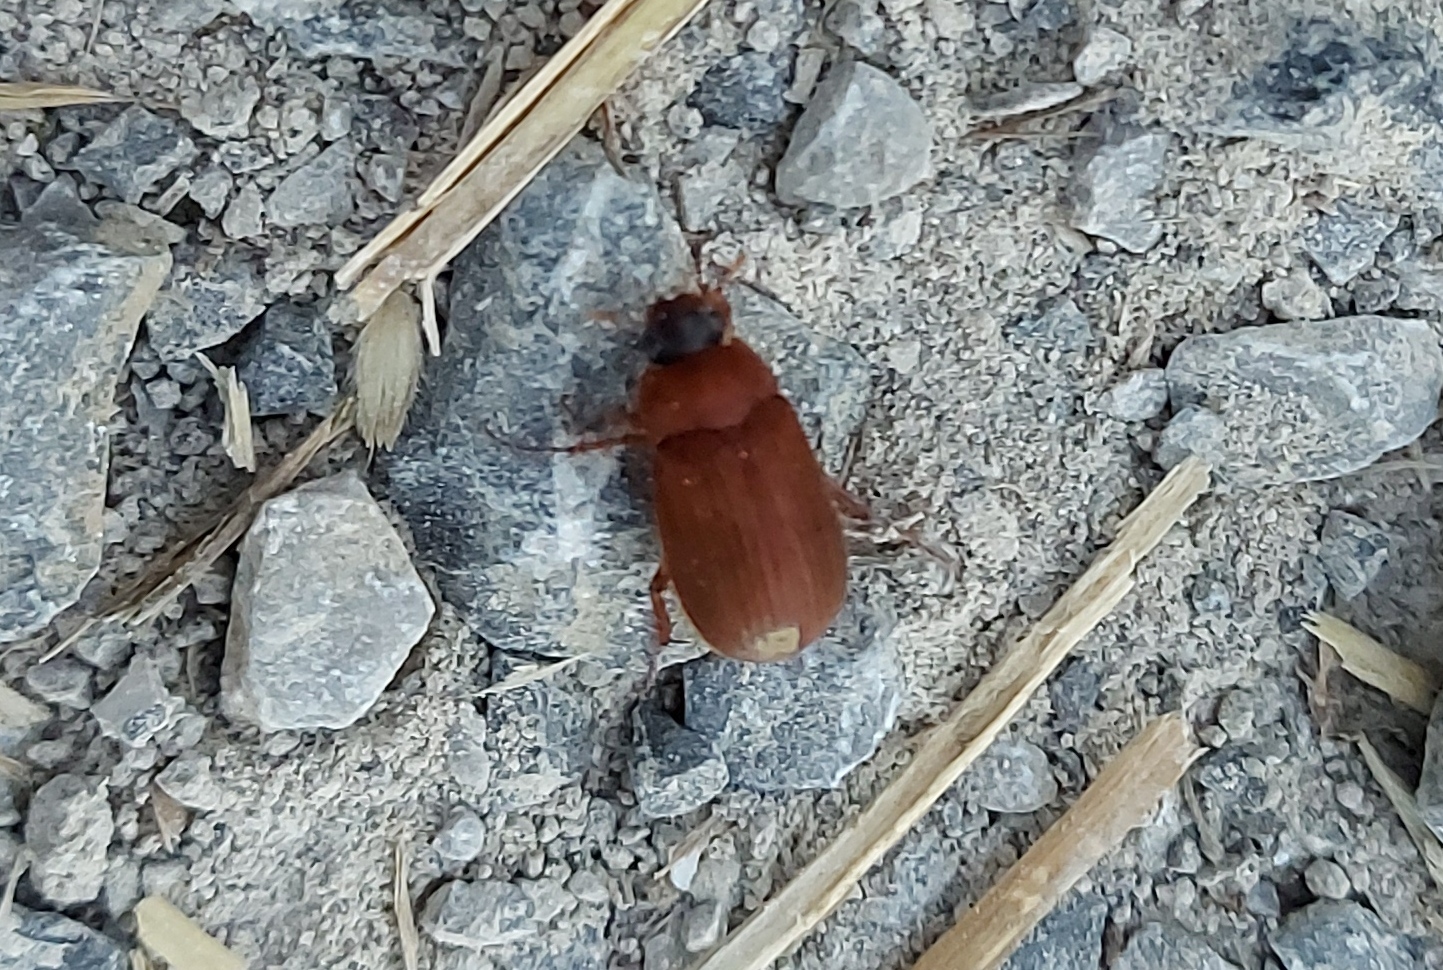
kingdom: Animalia
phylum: Arthropoda
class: Insecta
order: Coleoptera
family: Scarabaeidae
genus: Serica
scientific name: Serica brunnea
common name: Brown chafer
